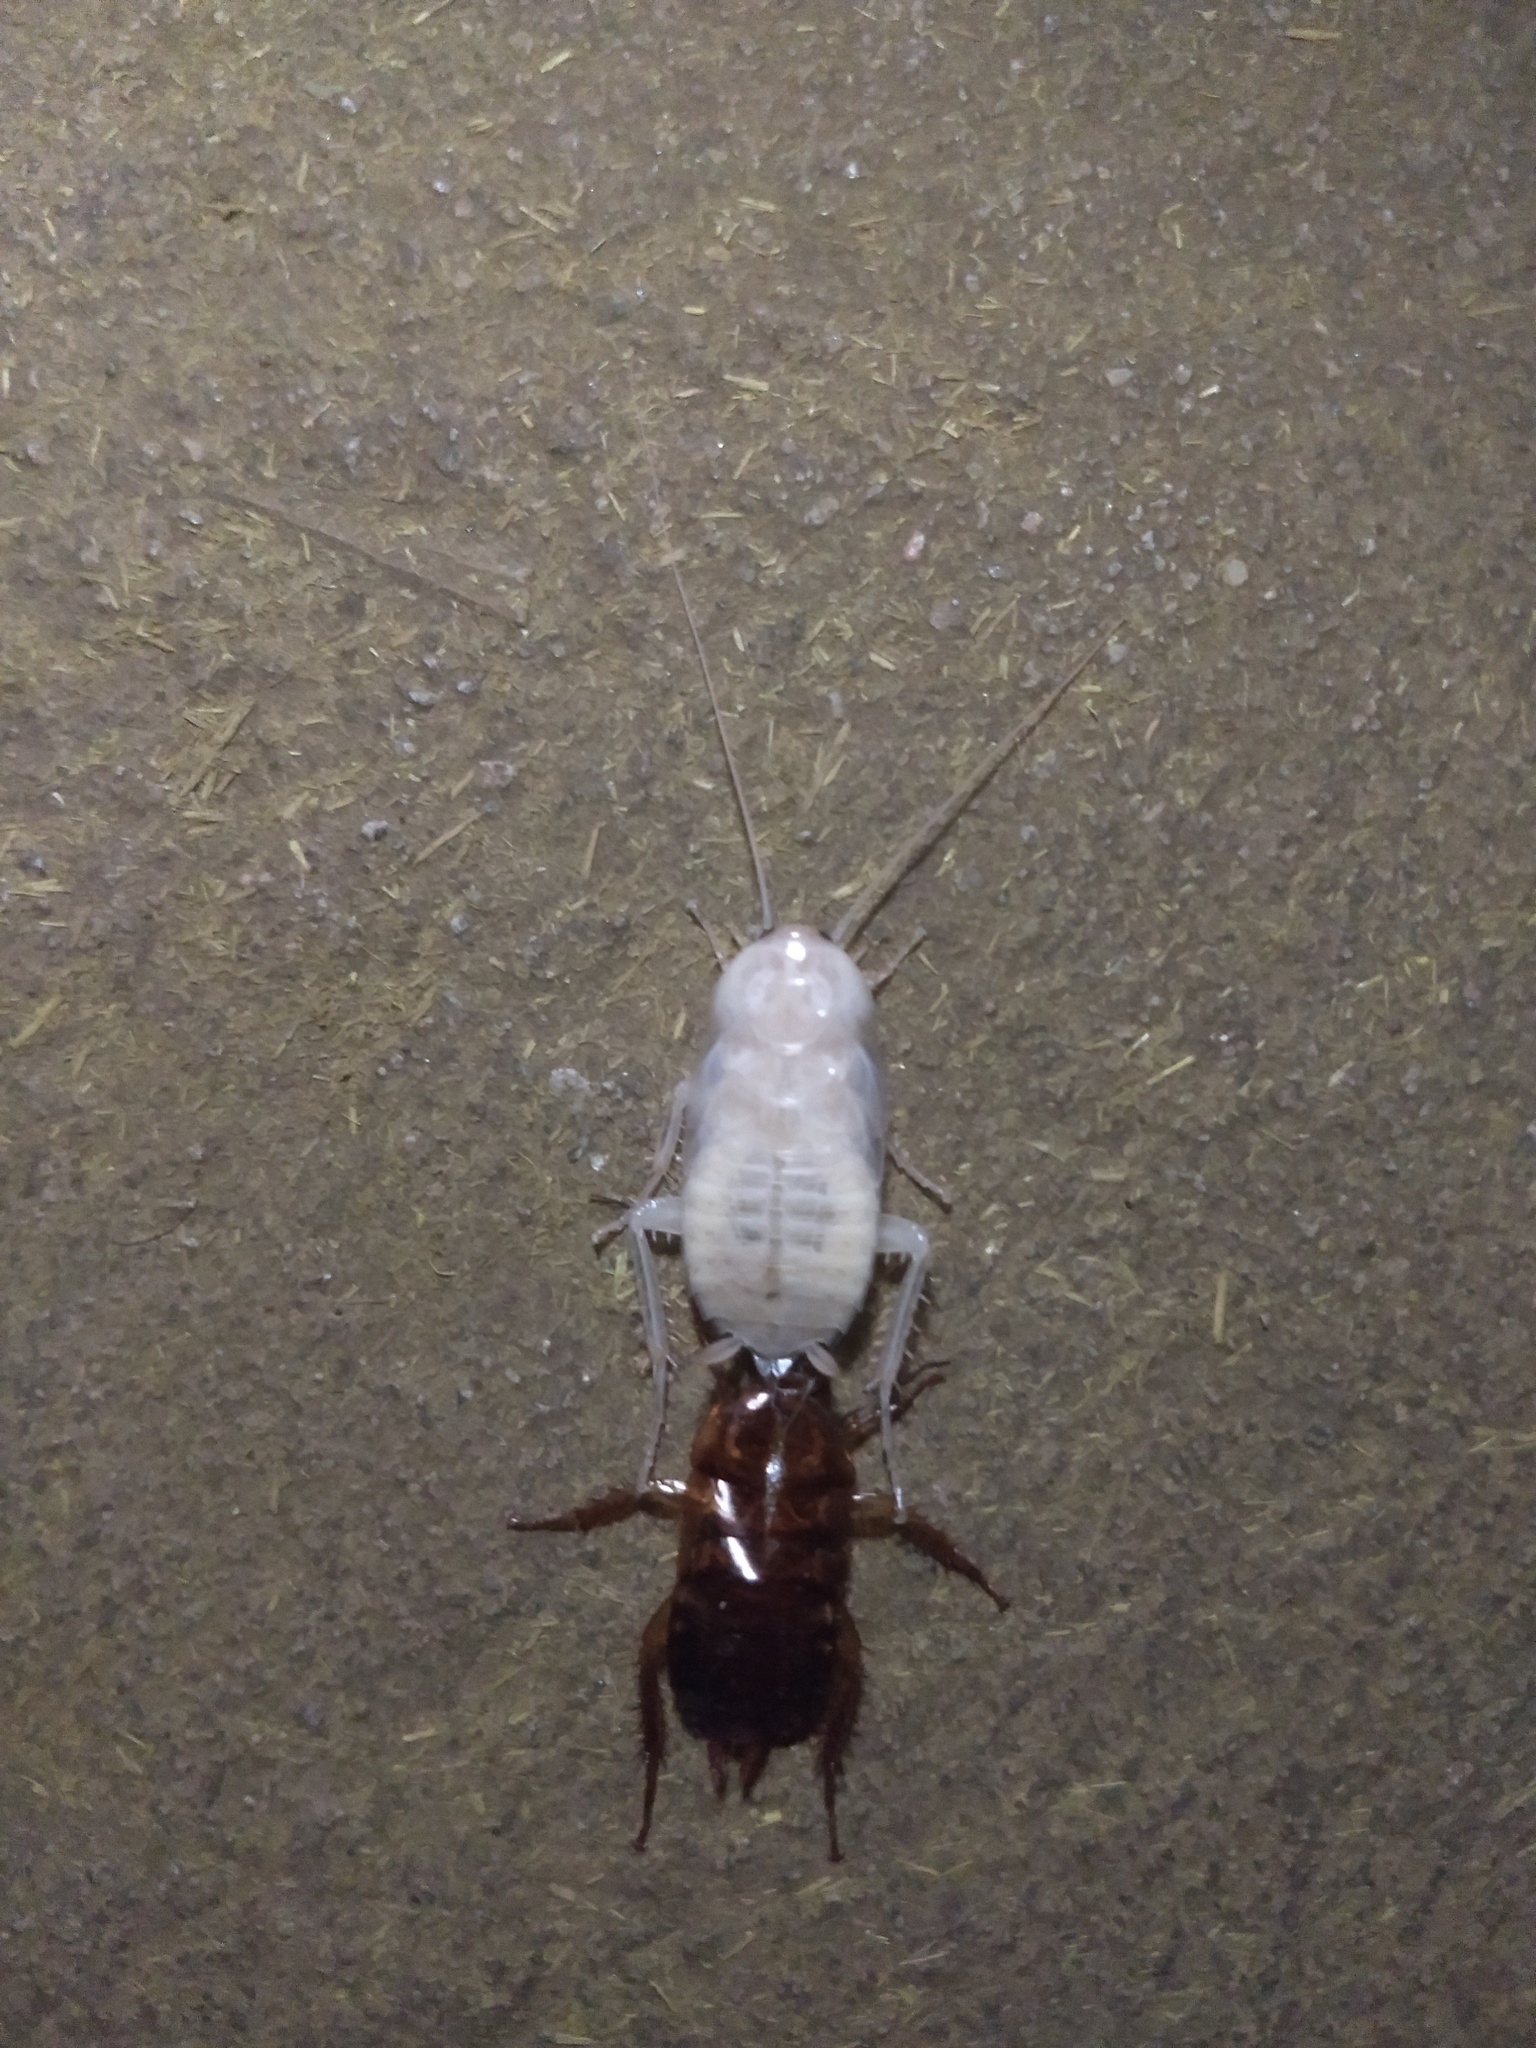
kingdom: Animalia
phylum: Arthropoda
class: Insecta
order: Blattodea
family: Blattidae
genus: Periplaneta
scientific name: Periplaneta australasiae
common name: Australian cockroach
